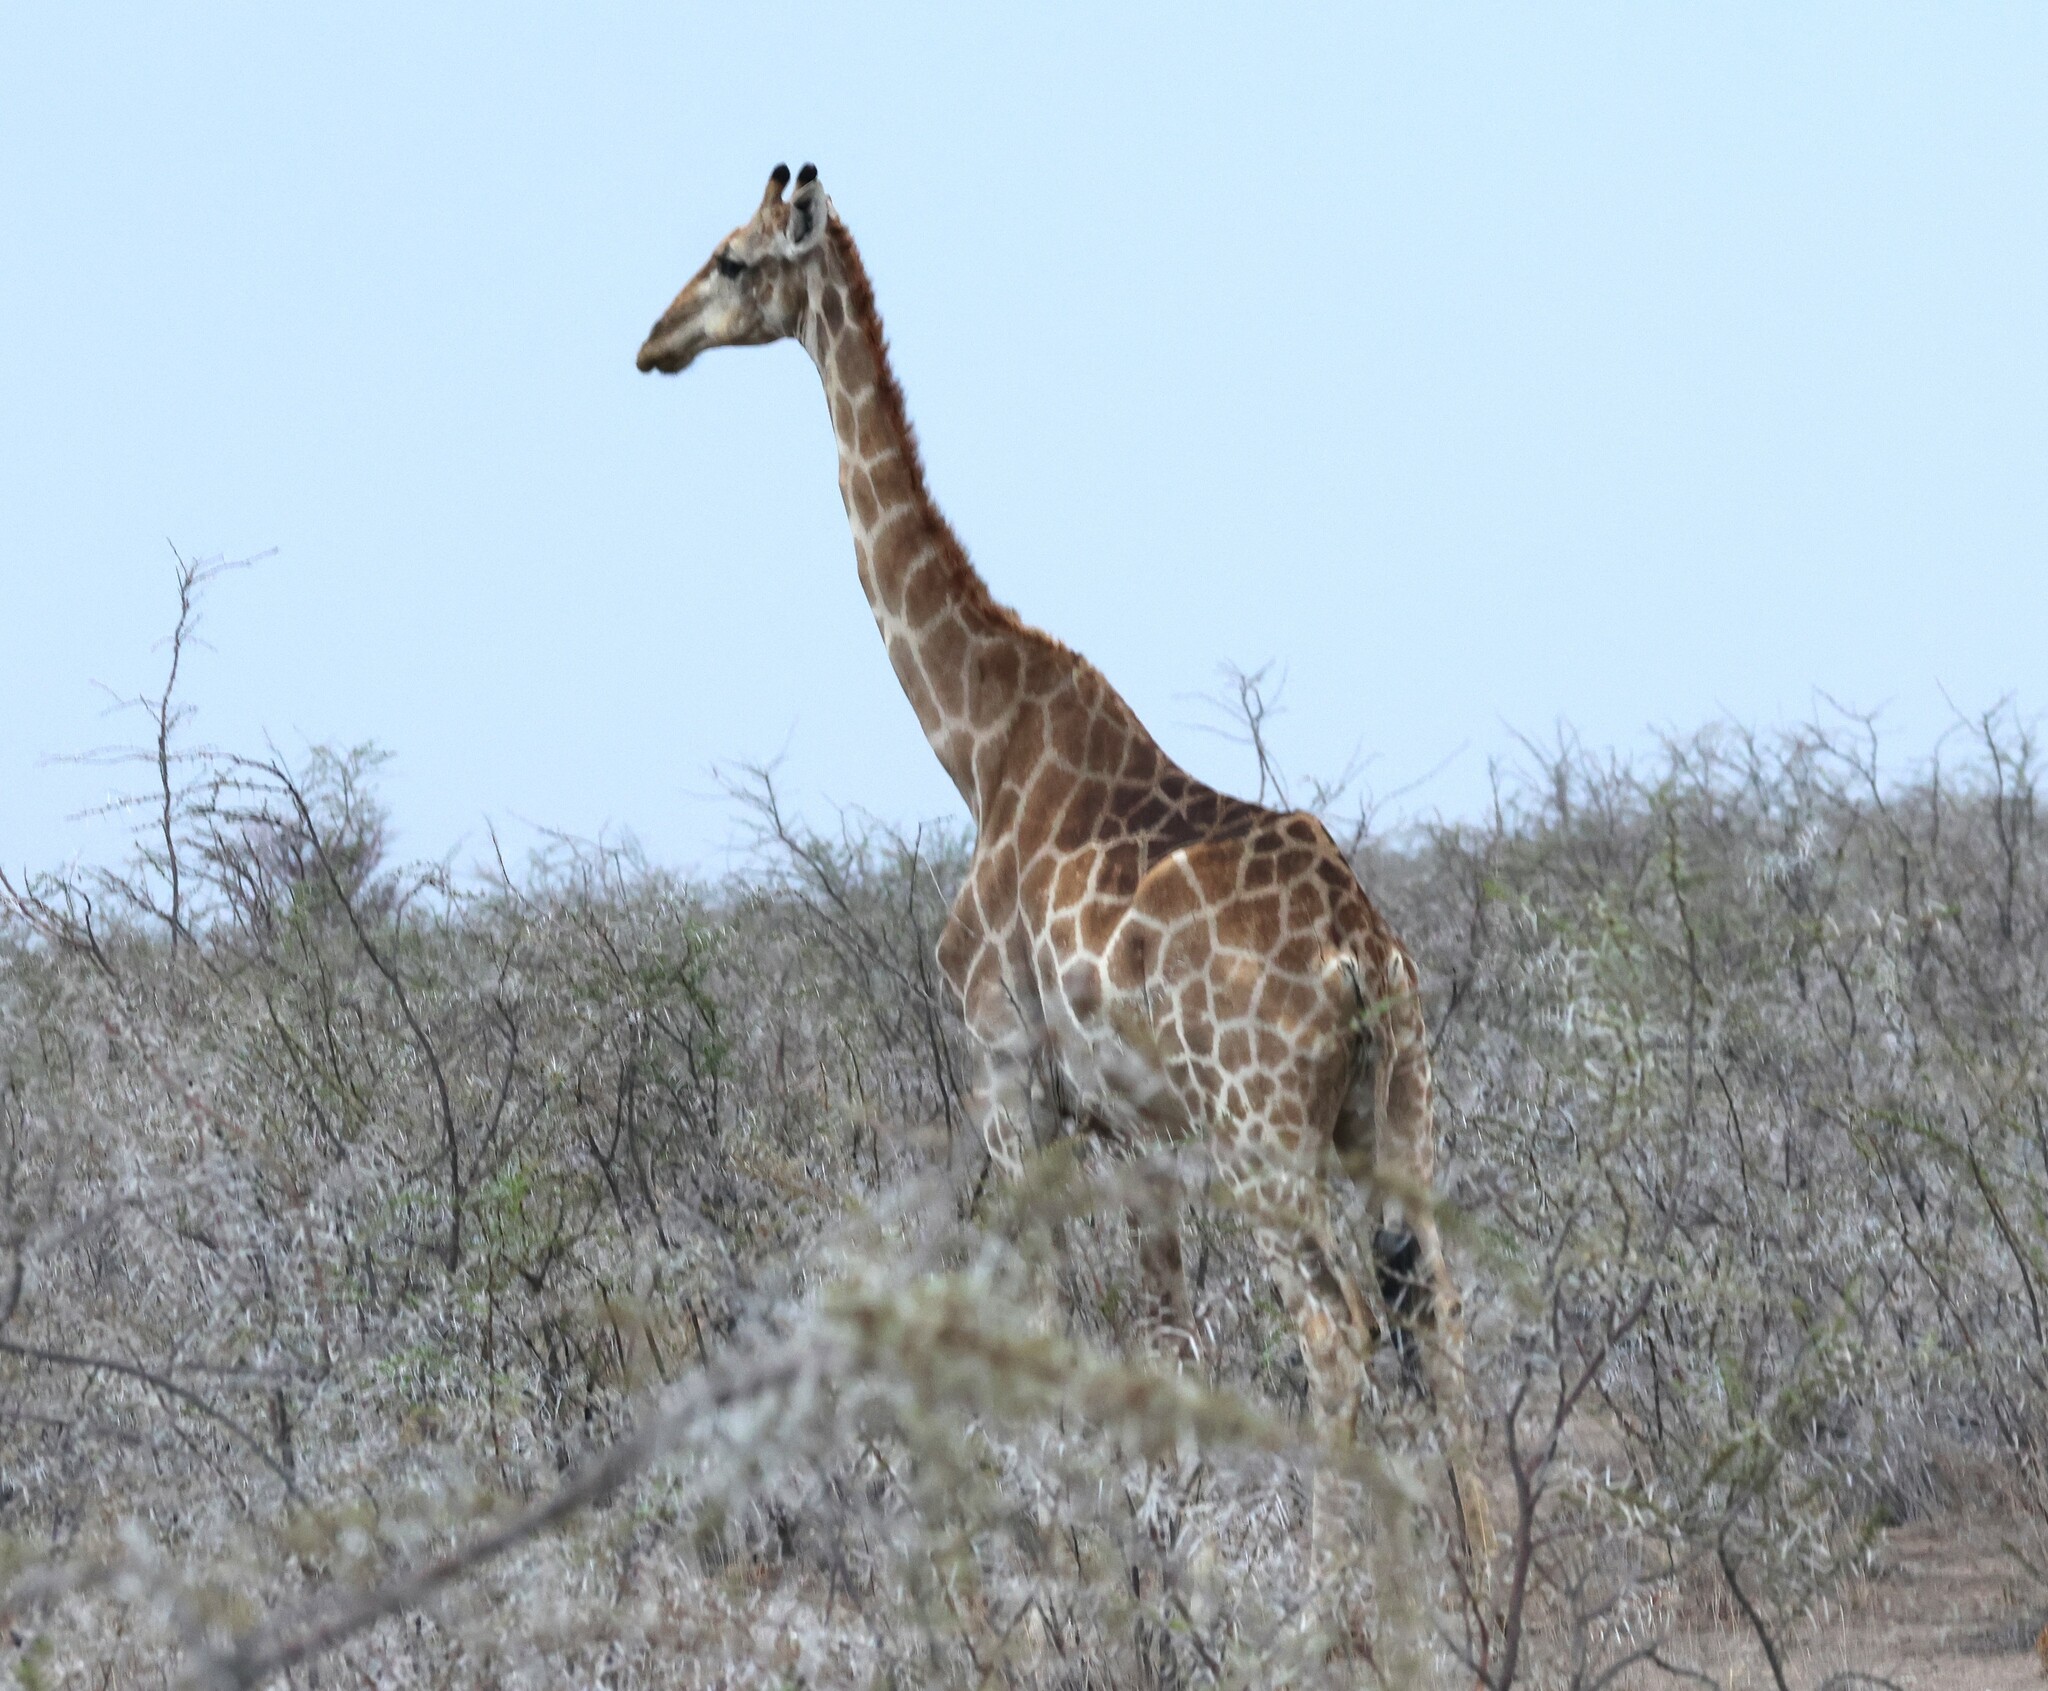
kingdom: Animalia
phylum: Chordata
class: Mammalia
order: Artiodactyla
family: Giraffidae
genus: Giraffa
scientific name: Giraffa giraffa
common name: Southern giraffe
